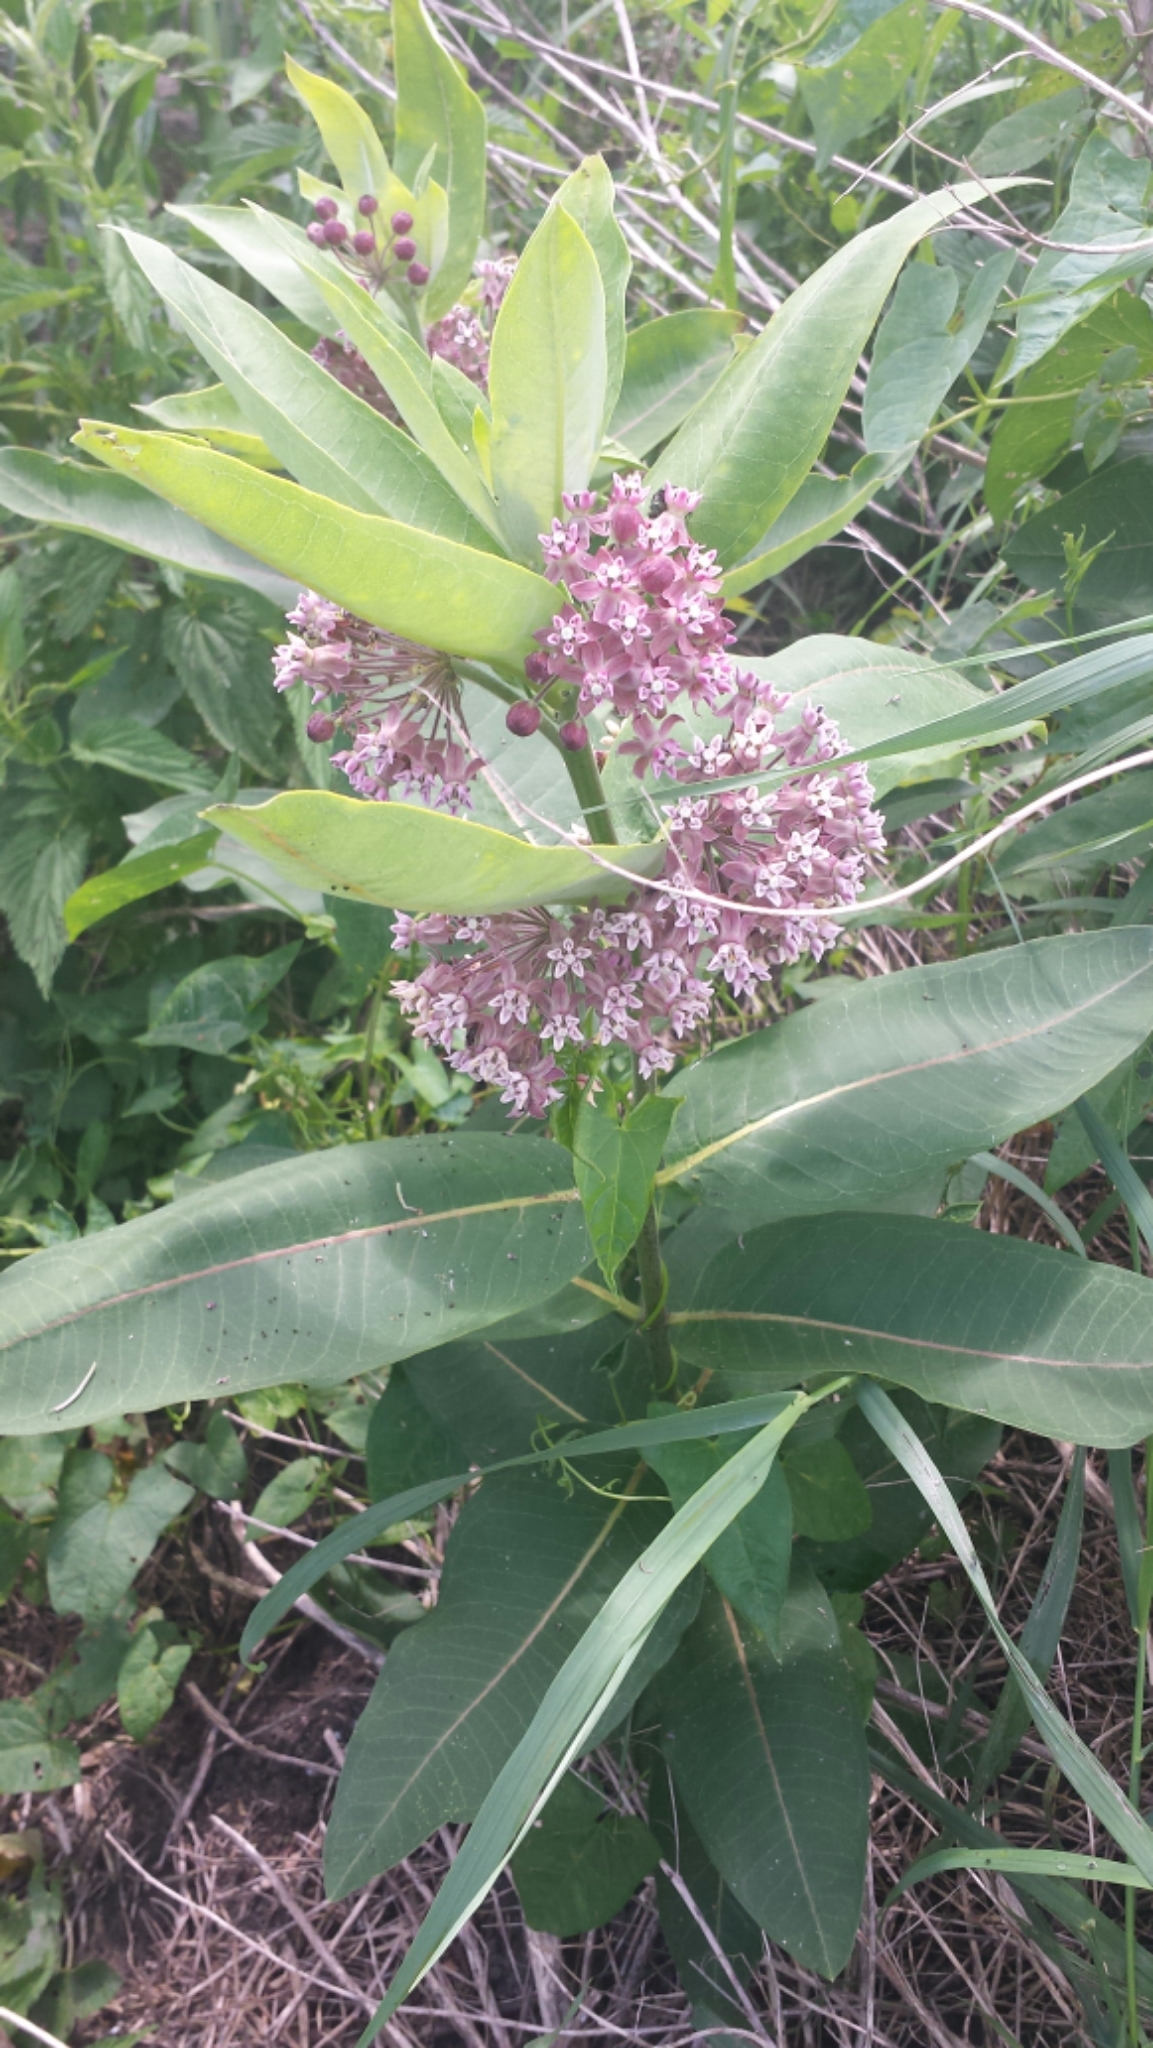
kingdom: Plantae
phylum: Tracheophyta
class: Magnoliopsida
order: Gentianales
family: Apocynaceae
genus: Asclepias
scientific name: Asclepias syriaca
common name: Common milkweed
